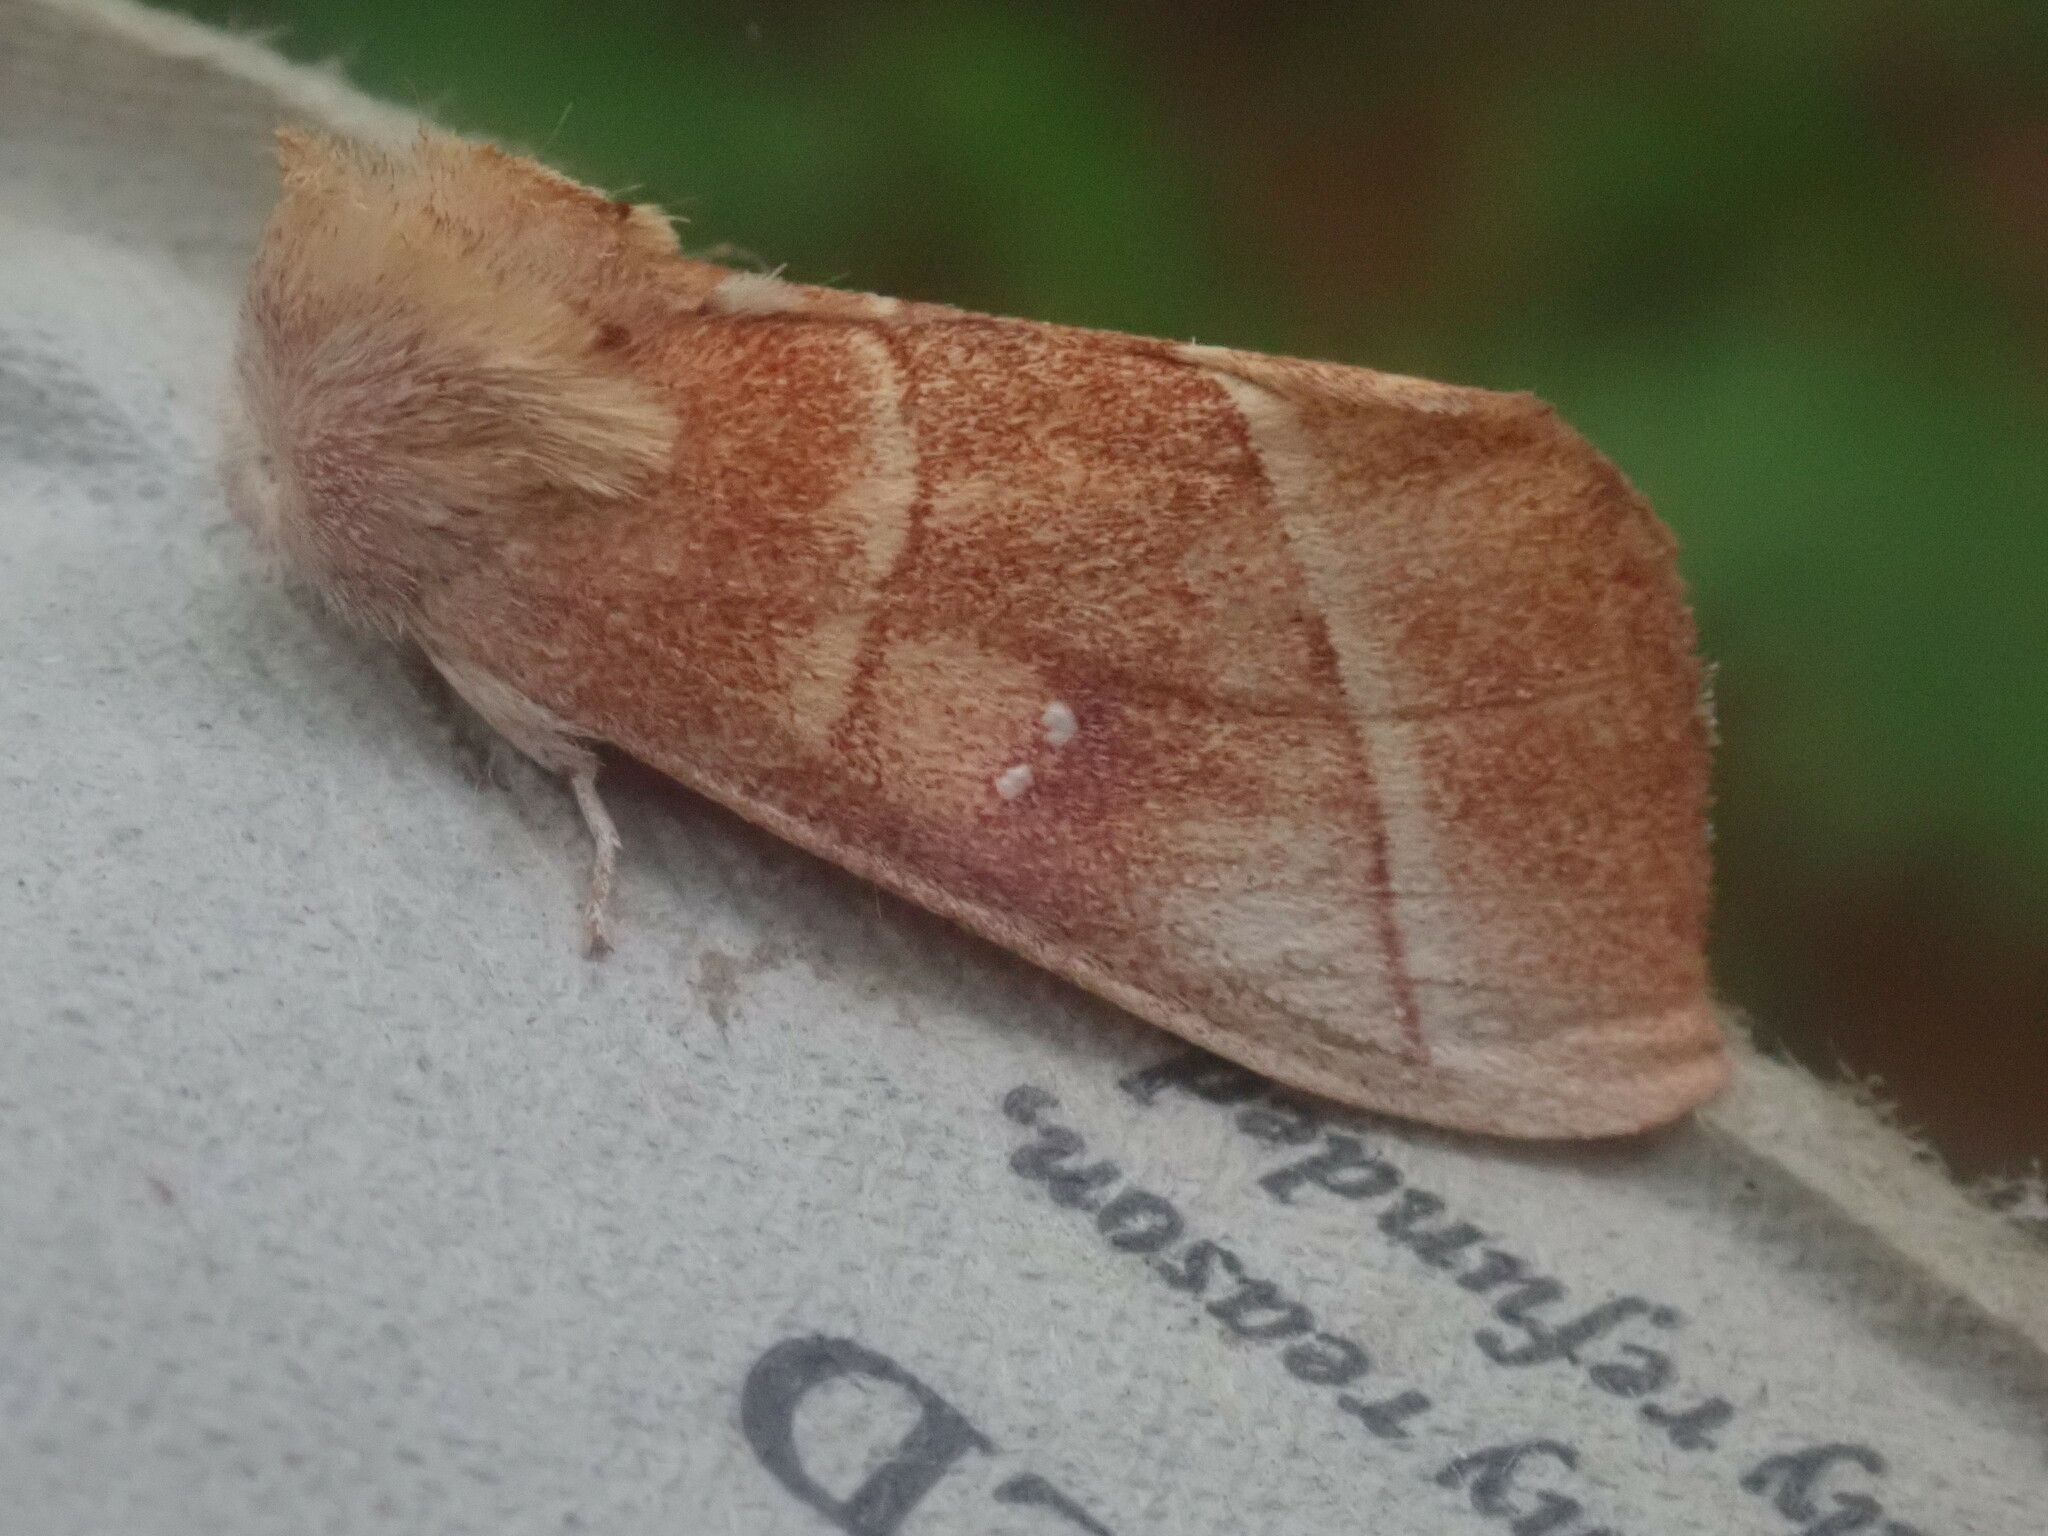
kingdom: Animalia
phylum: Arthropoda
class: Insecta
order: Lepidoptera
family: Notodontidae
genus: Nadata
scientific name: Nadata gibbosa
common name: White-dotted prominent
